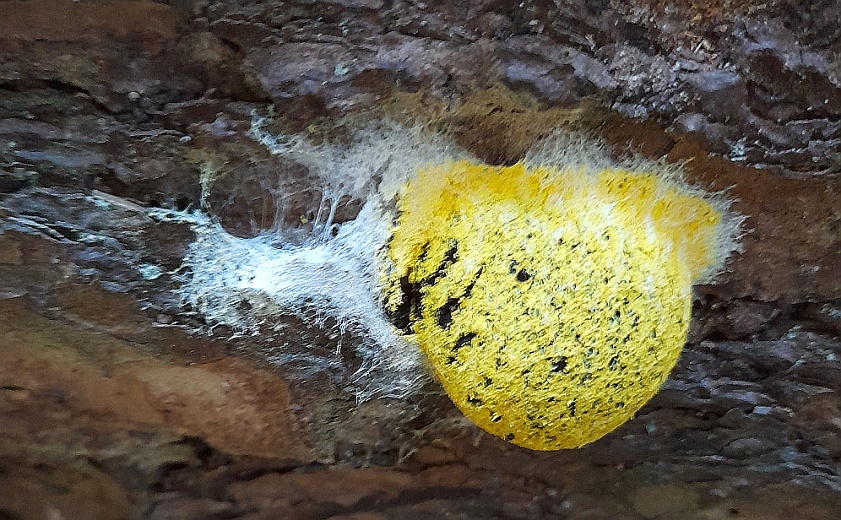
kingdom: Protozoa
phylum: Mycetozoa
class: Myxomycetes
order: Physarales
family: Physaraceae
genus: Fuligo
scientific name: Fuligo septica
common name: Dog vomit slime mold
